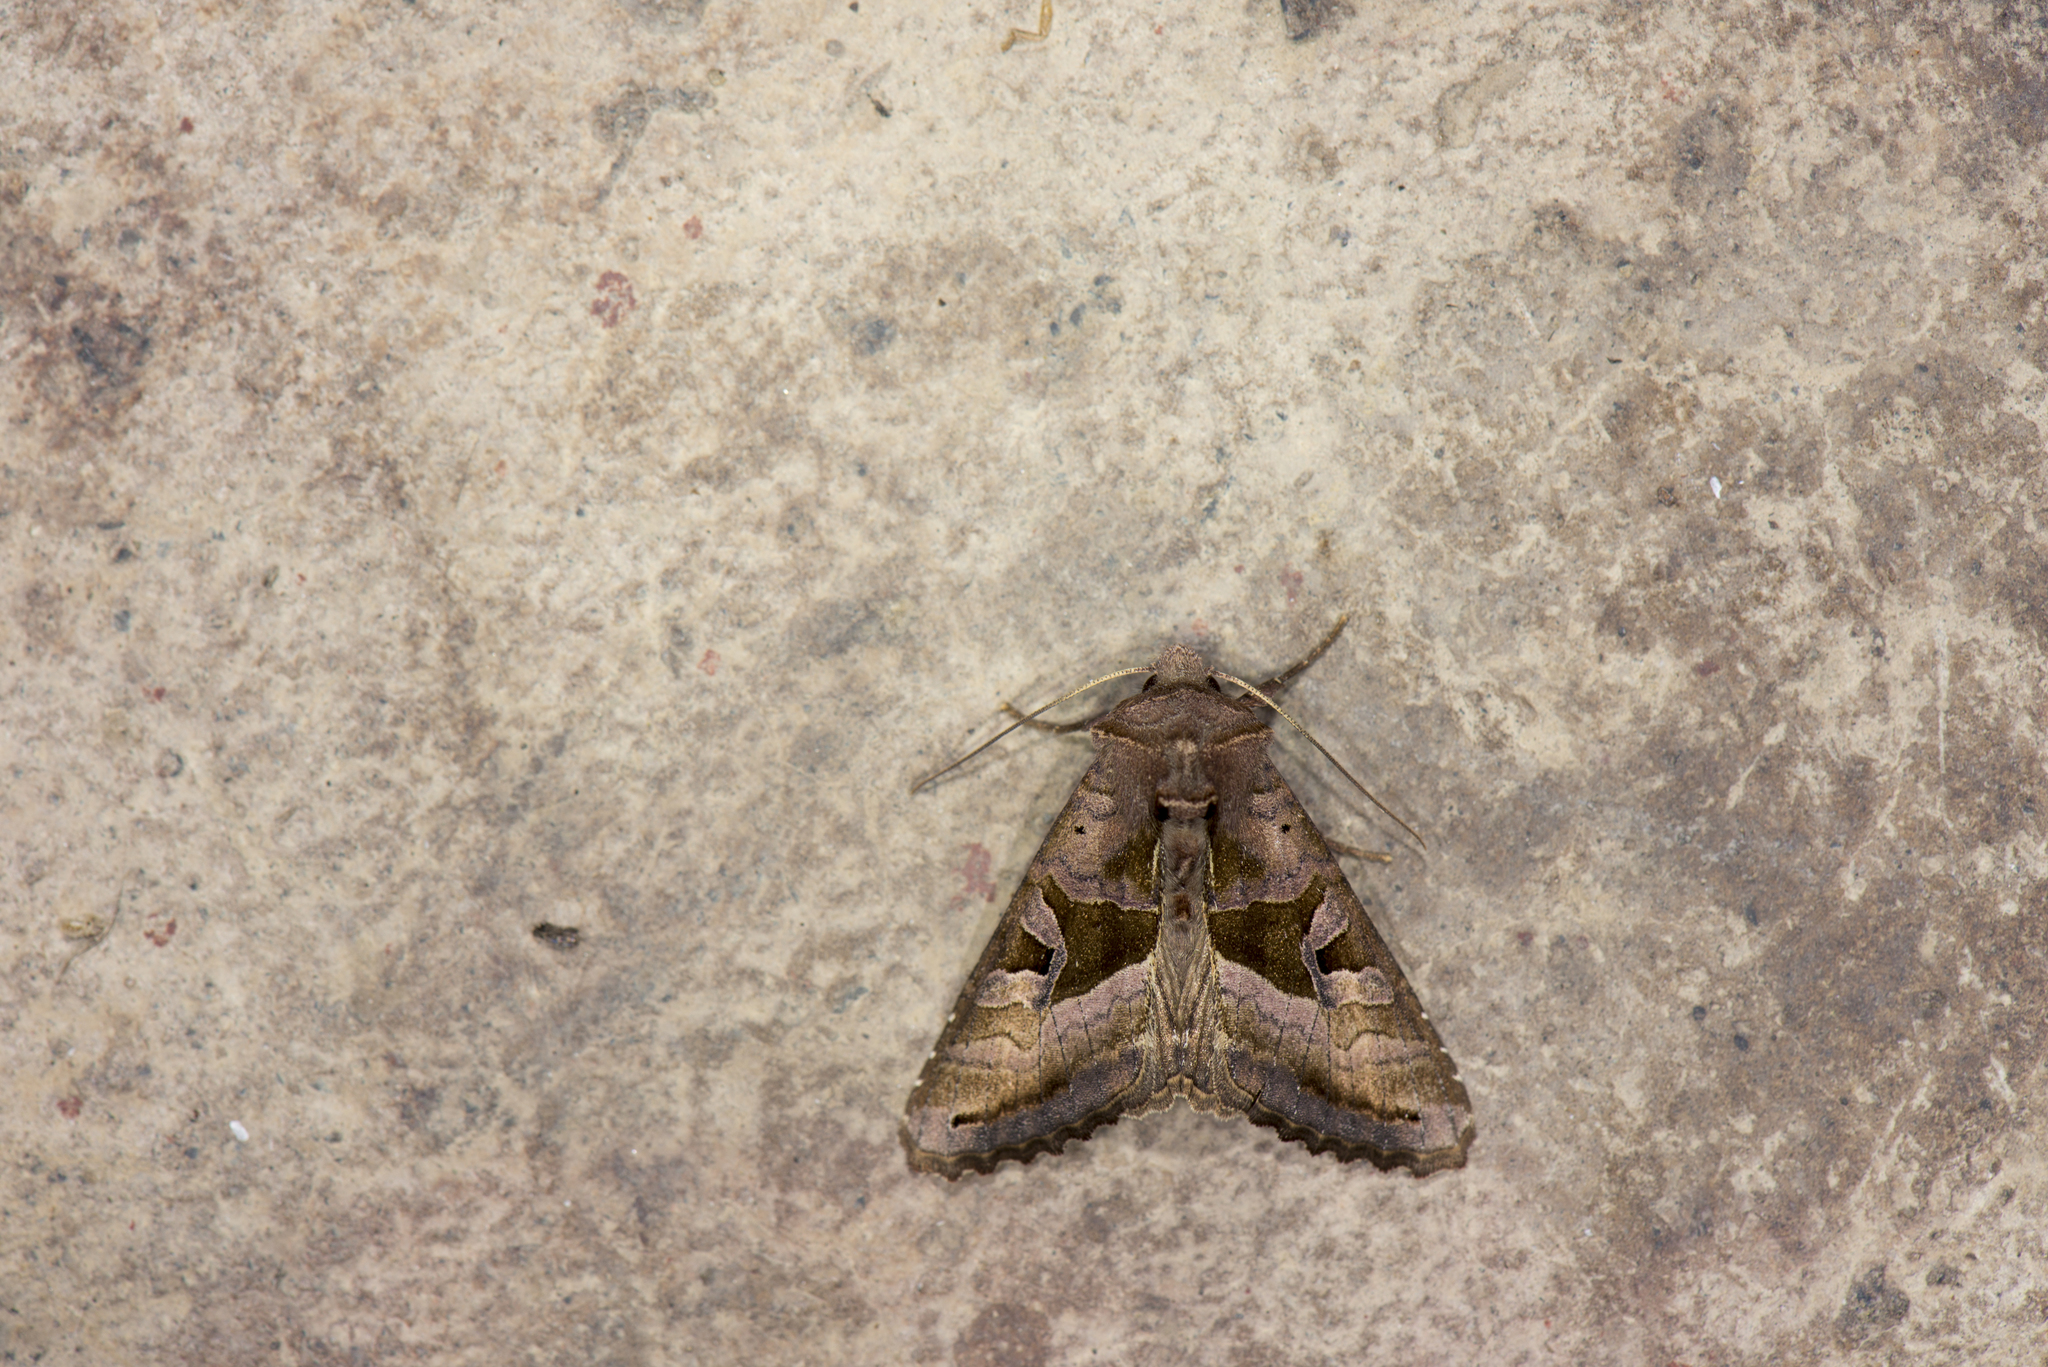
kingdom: Animalia
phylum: Arthropoda
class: Insecta
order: Lepidoptera
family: Noctuidae
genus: Phlogophora
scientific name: Phlogophora insularis
